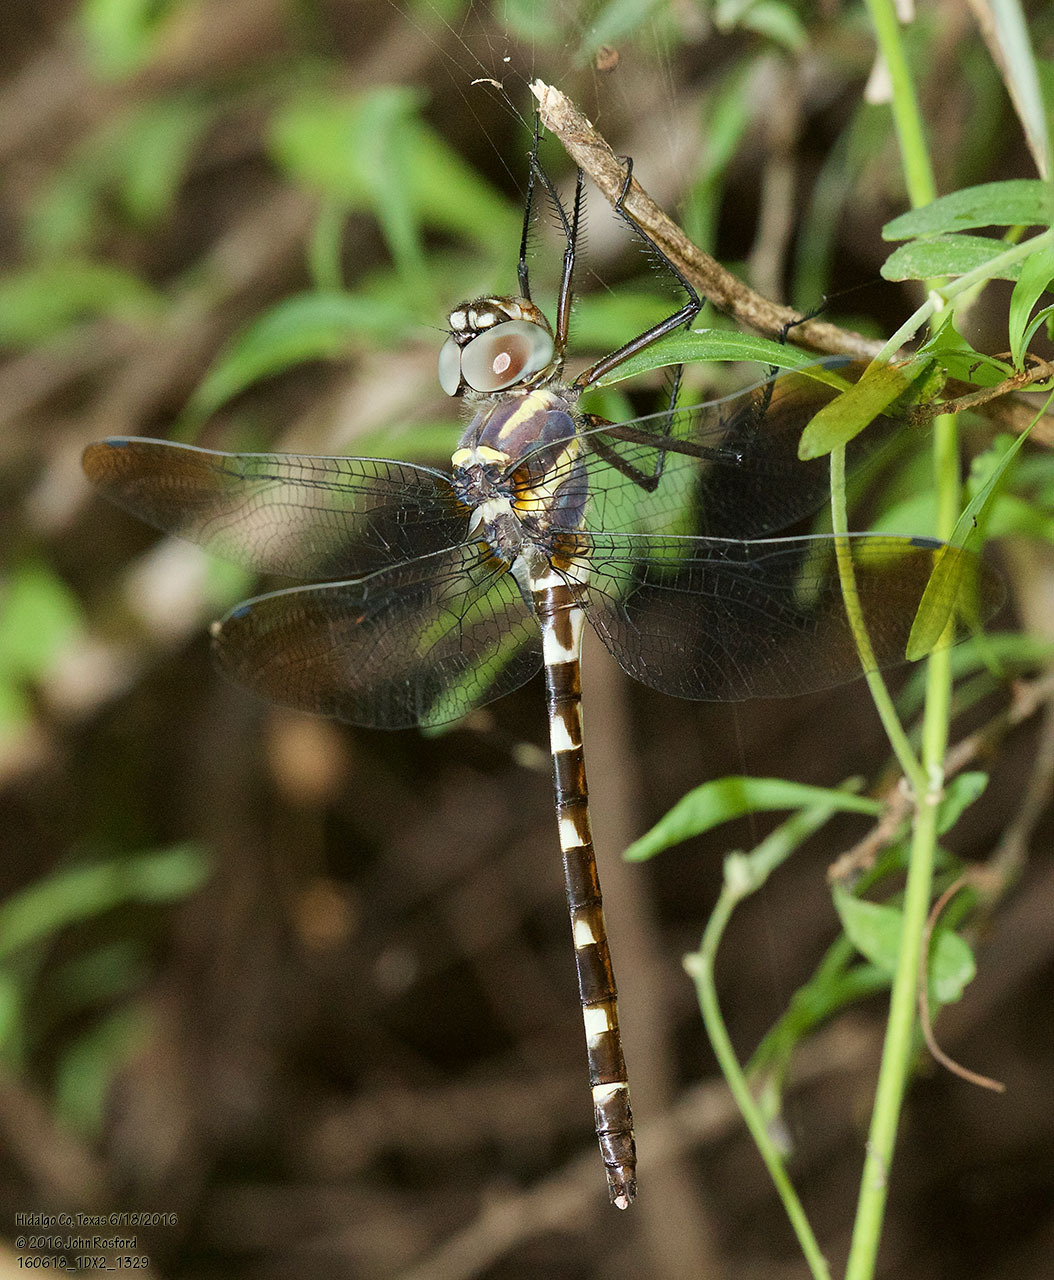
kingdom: Animalia
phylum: Arthropoda
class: Insecta
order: Odonata
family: Macromiidae
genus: Macromia
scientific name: Macromia annulata
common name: Bronzed river cruiser
